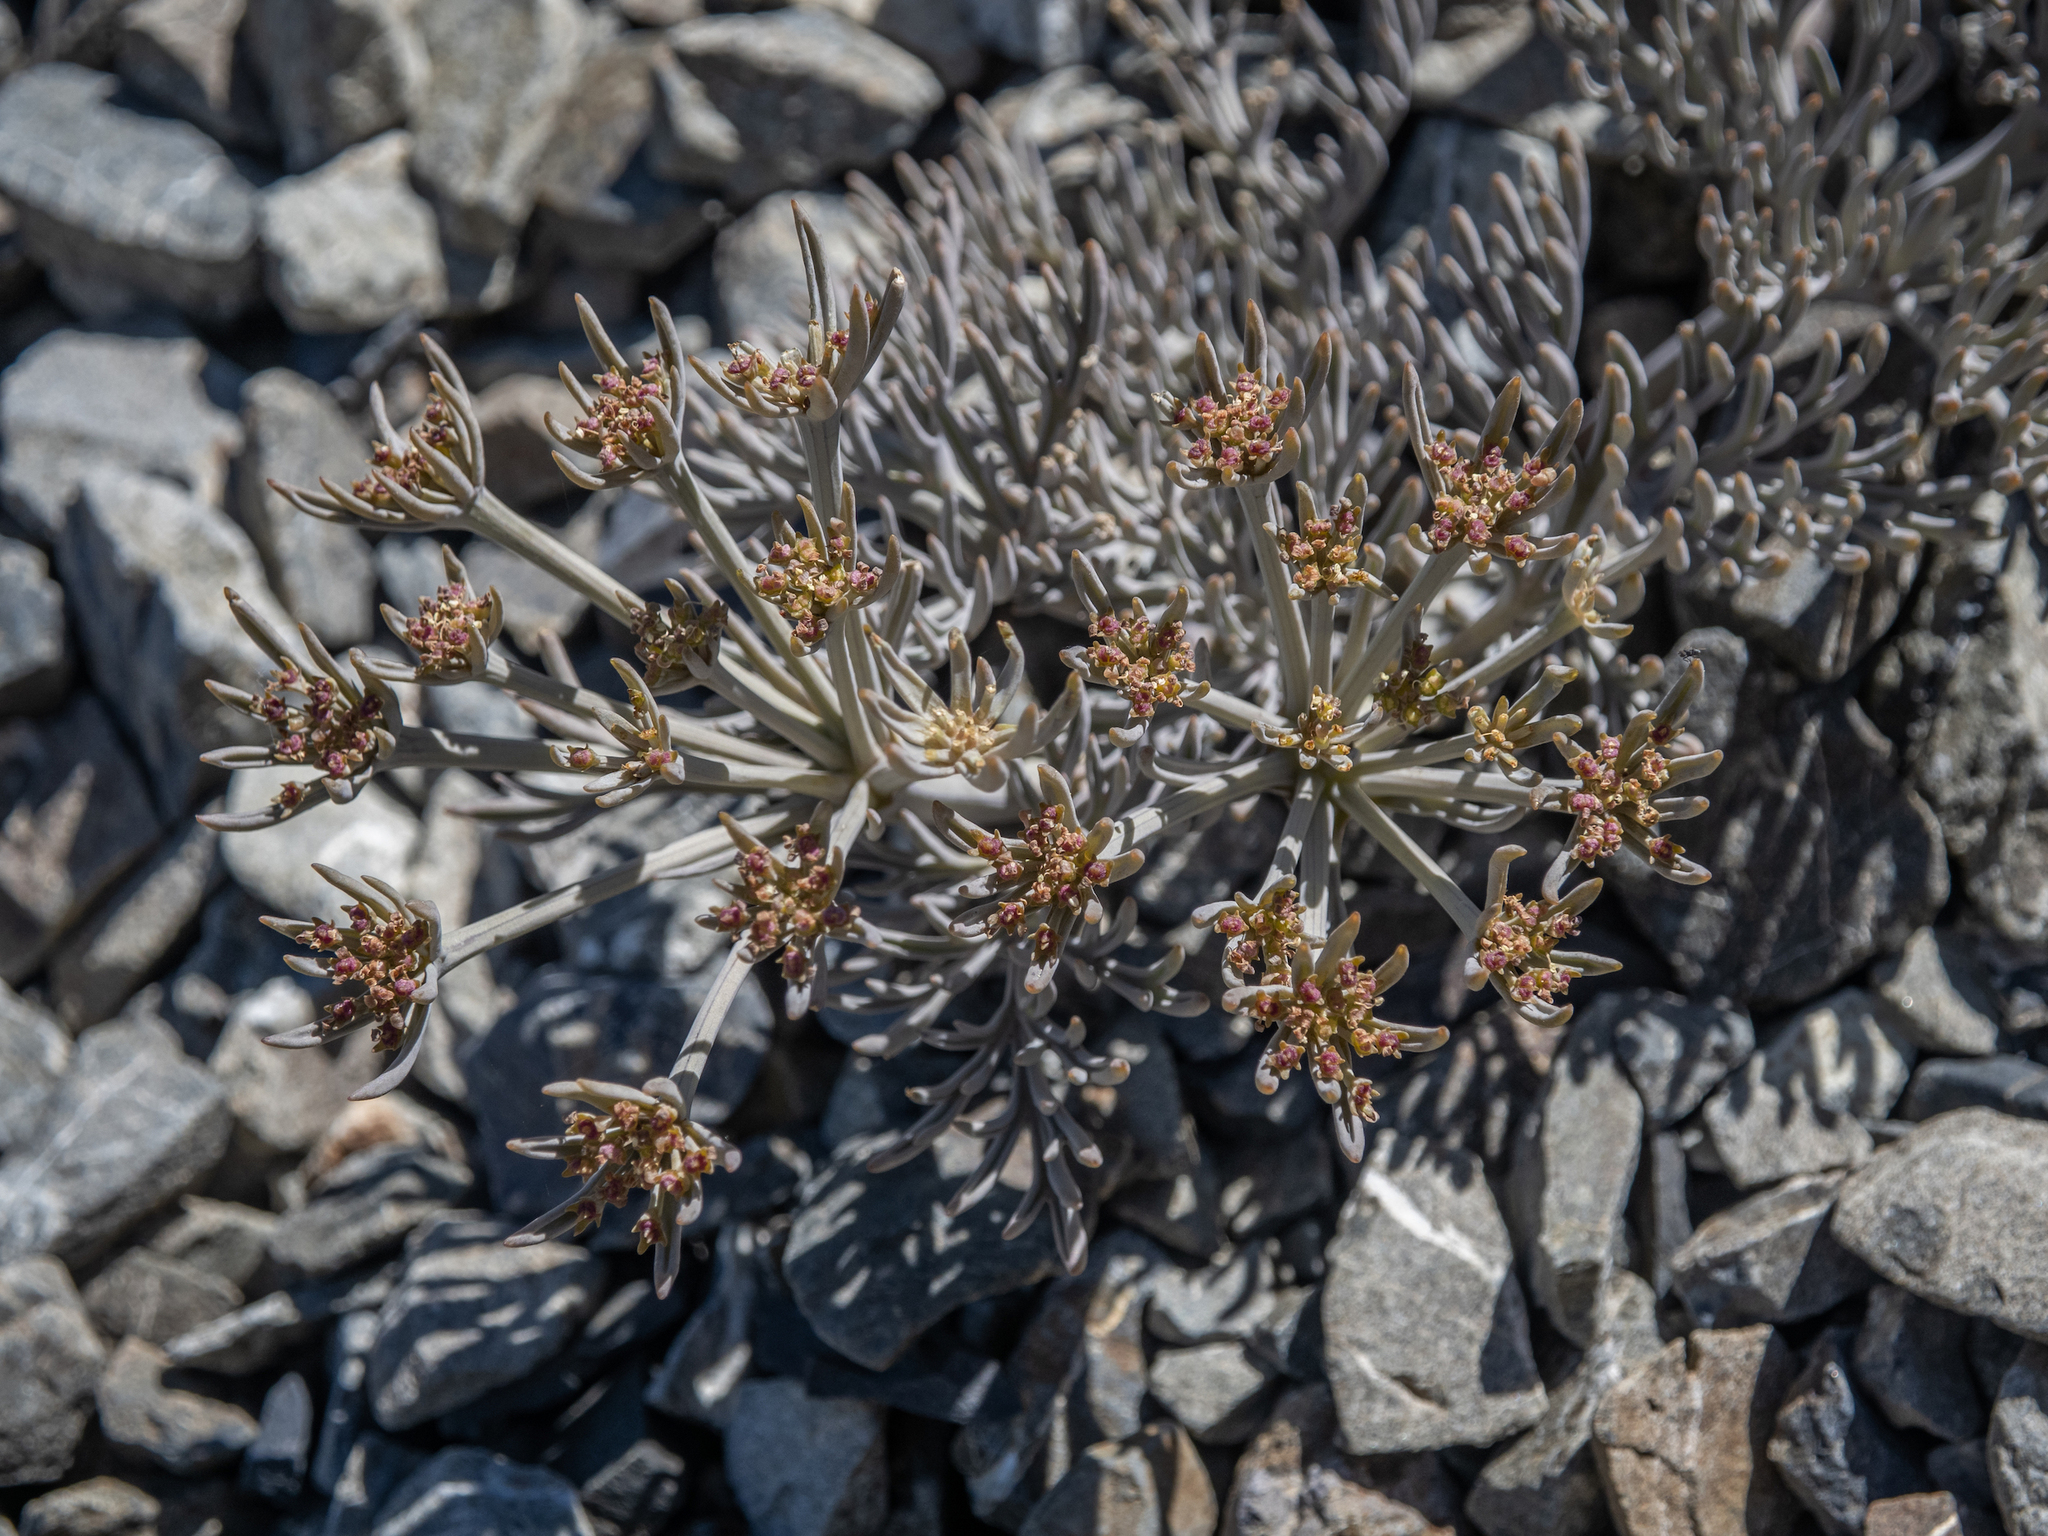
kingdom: Plantae
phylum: Tracheophyta
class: Magnoliopsida
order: Apiales
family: Apiaceae
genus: Lignocarpa
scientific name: Lignocarpa diversifolia
